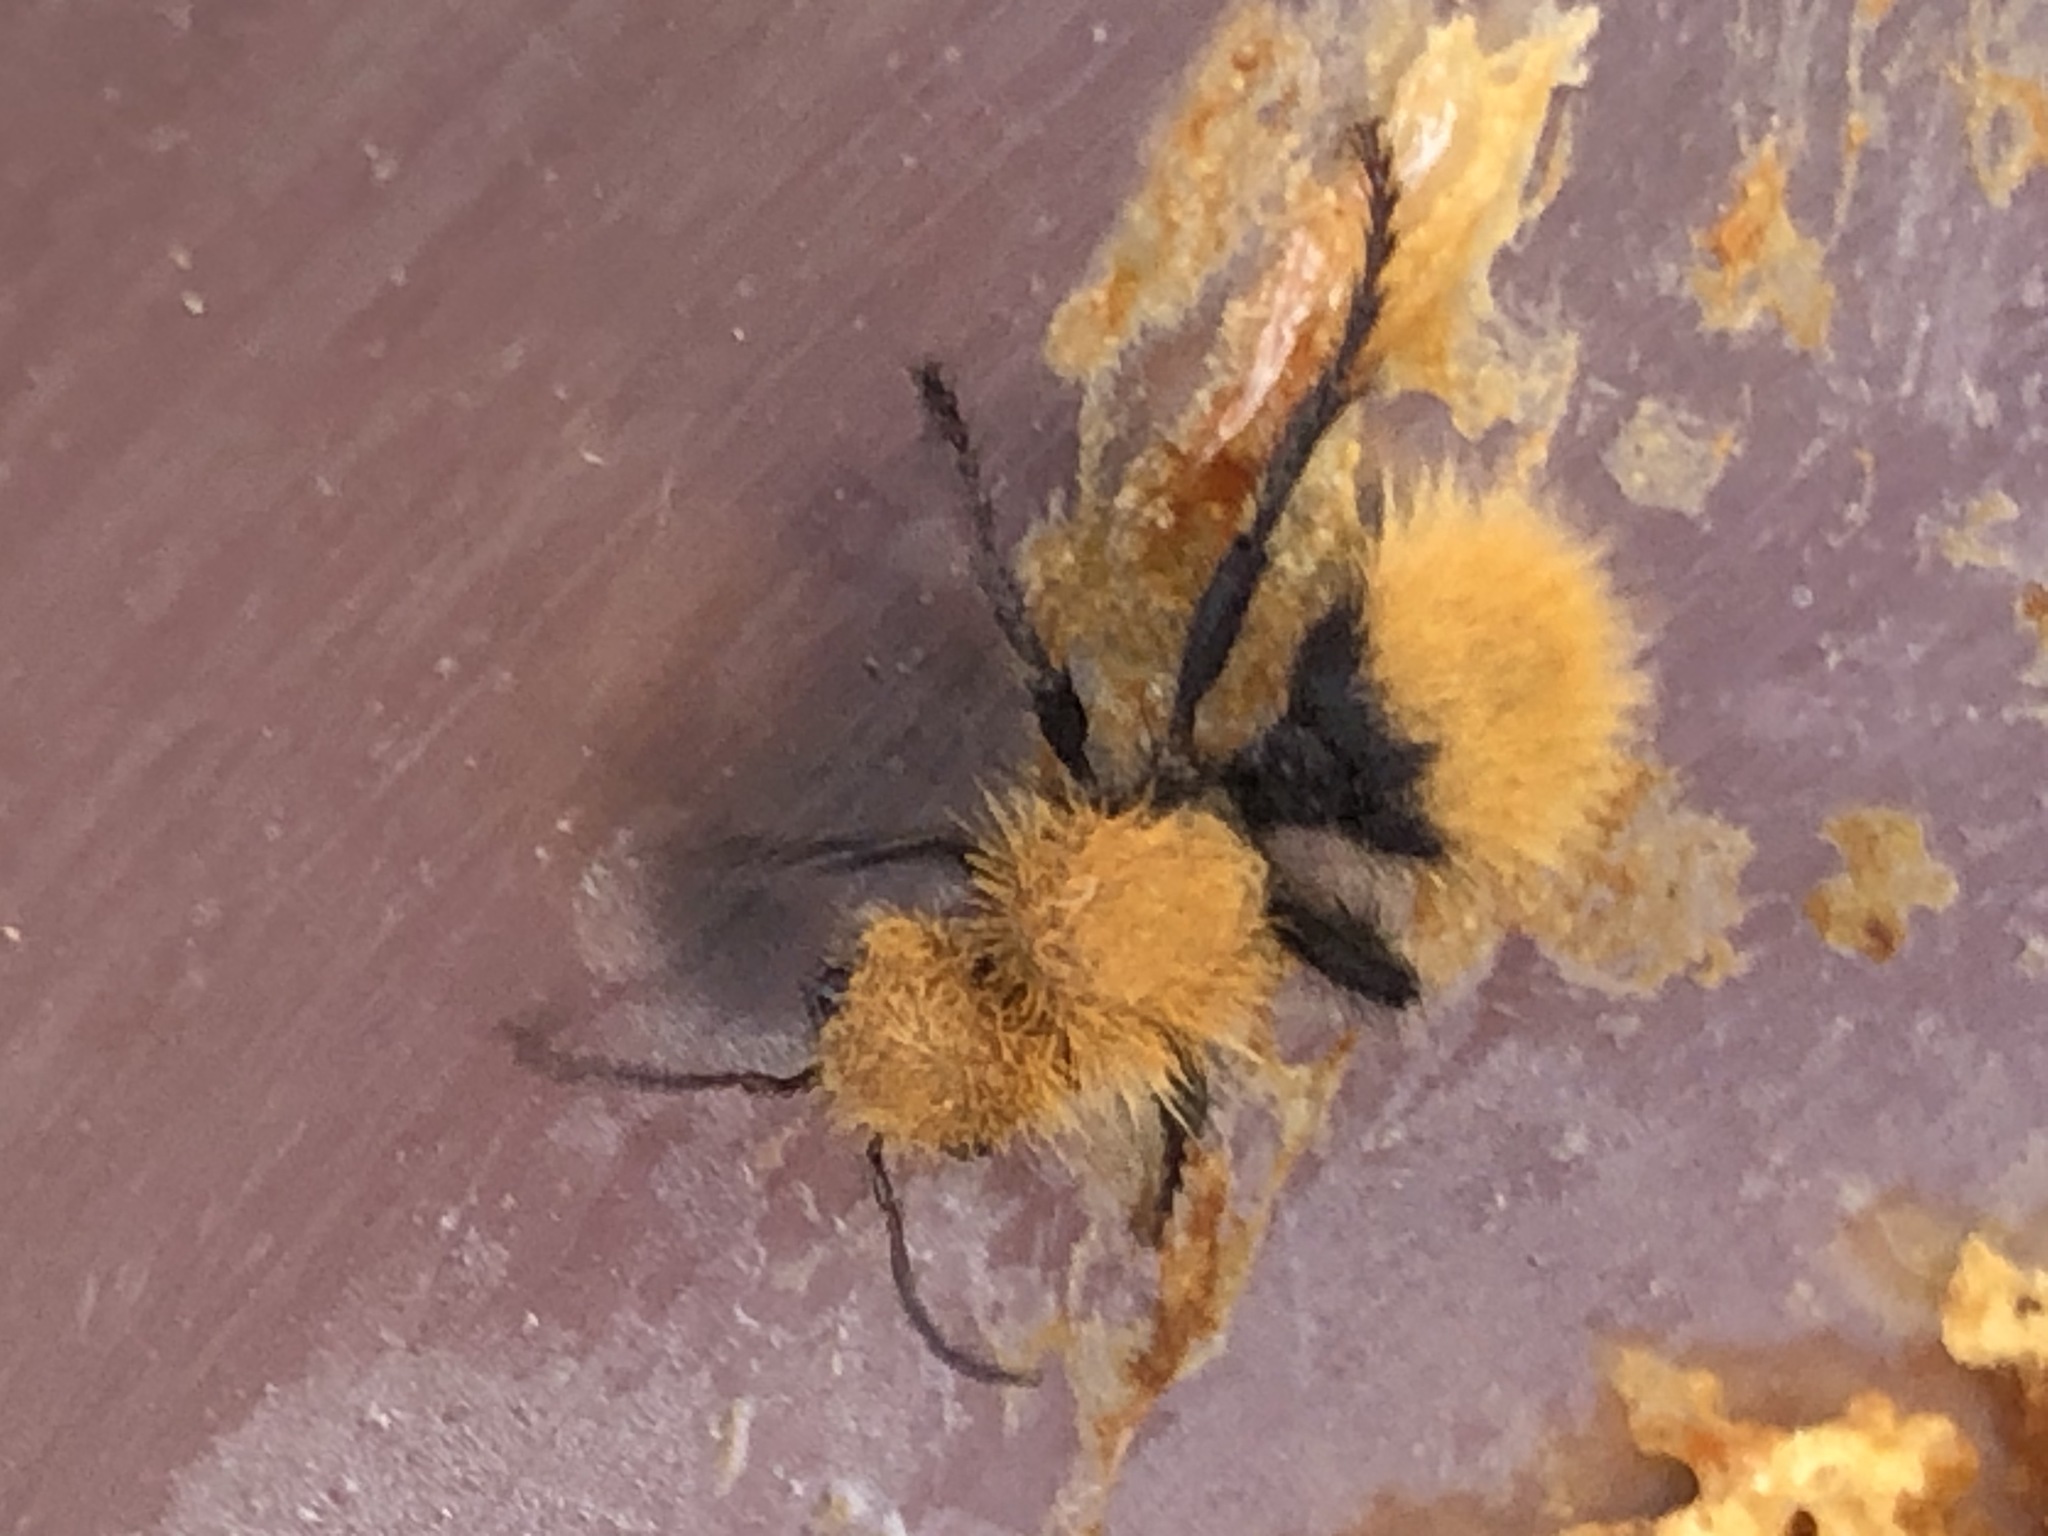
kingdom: Animalia
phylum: Arthropoda
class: Insecta
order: Hymenoptera
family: Mutillidae
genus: Dasymutilla
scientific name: Dasymutilla
